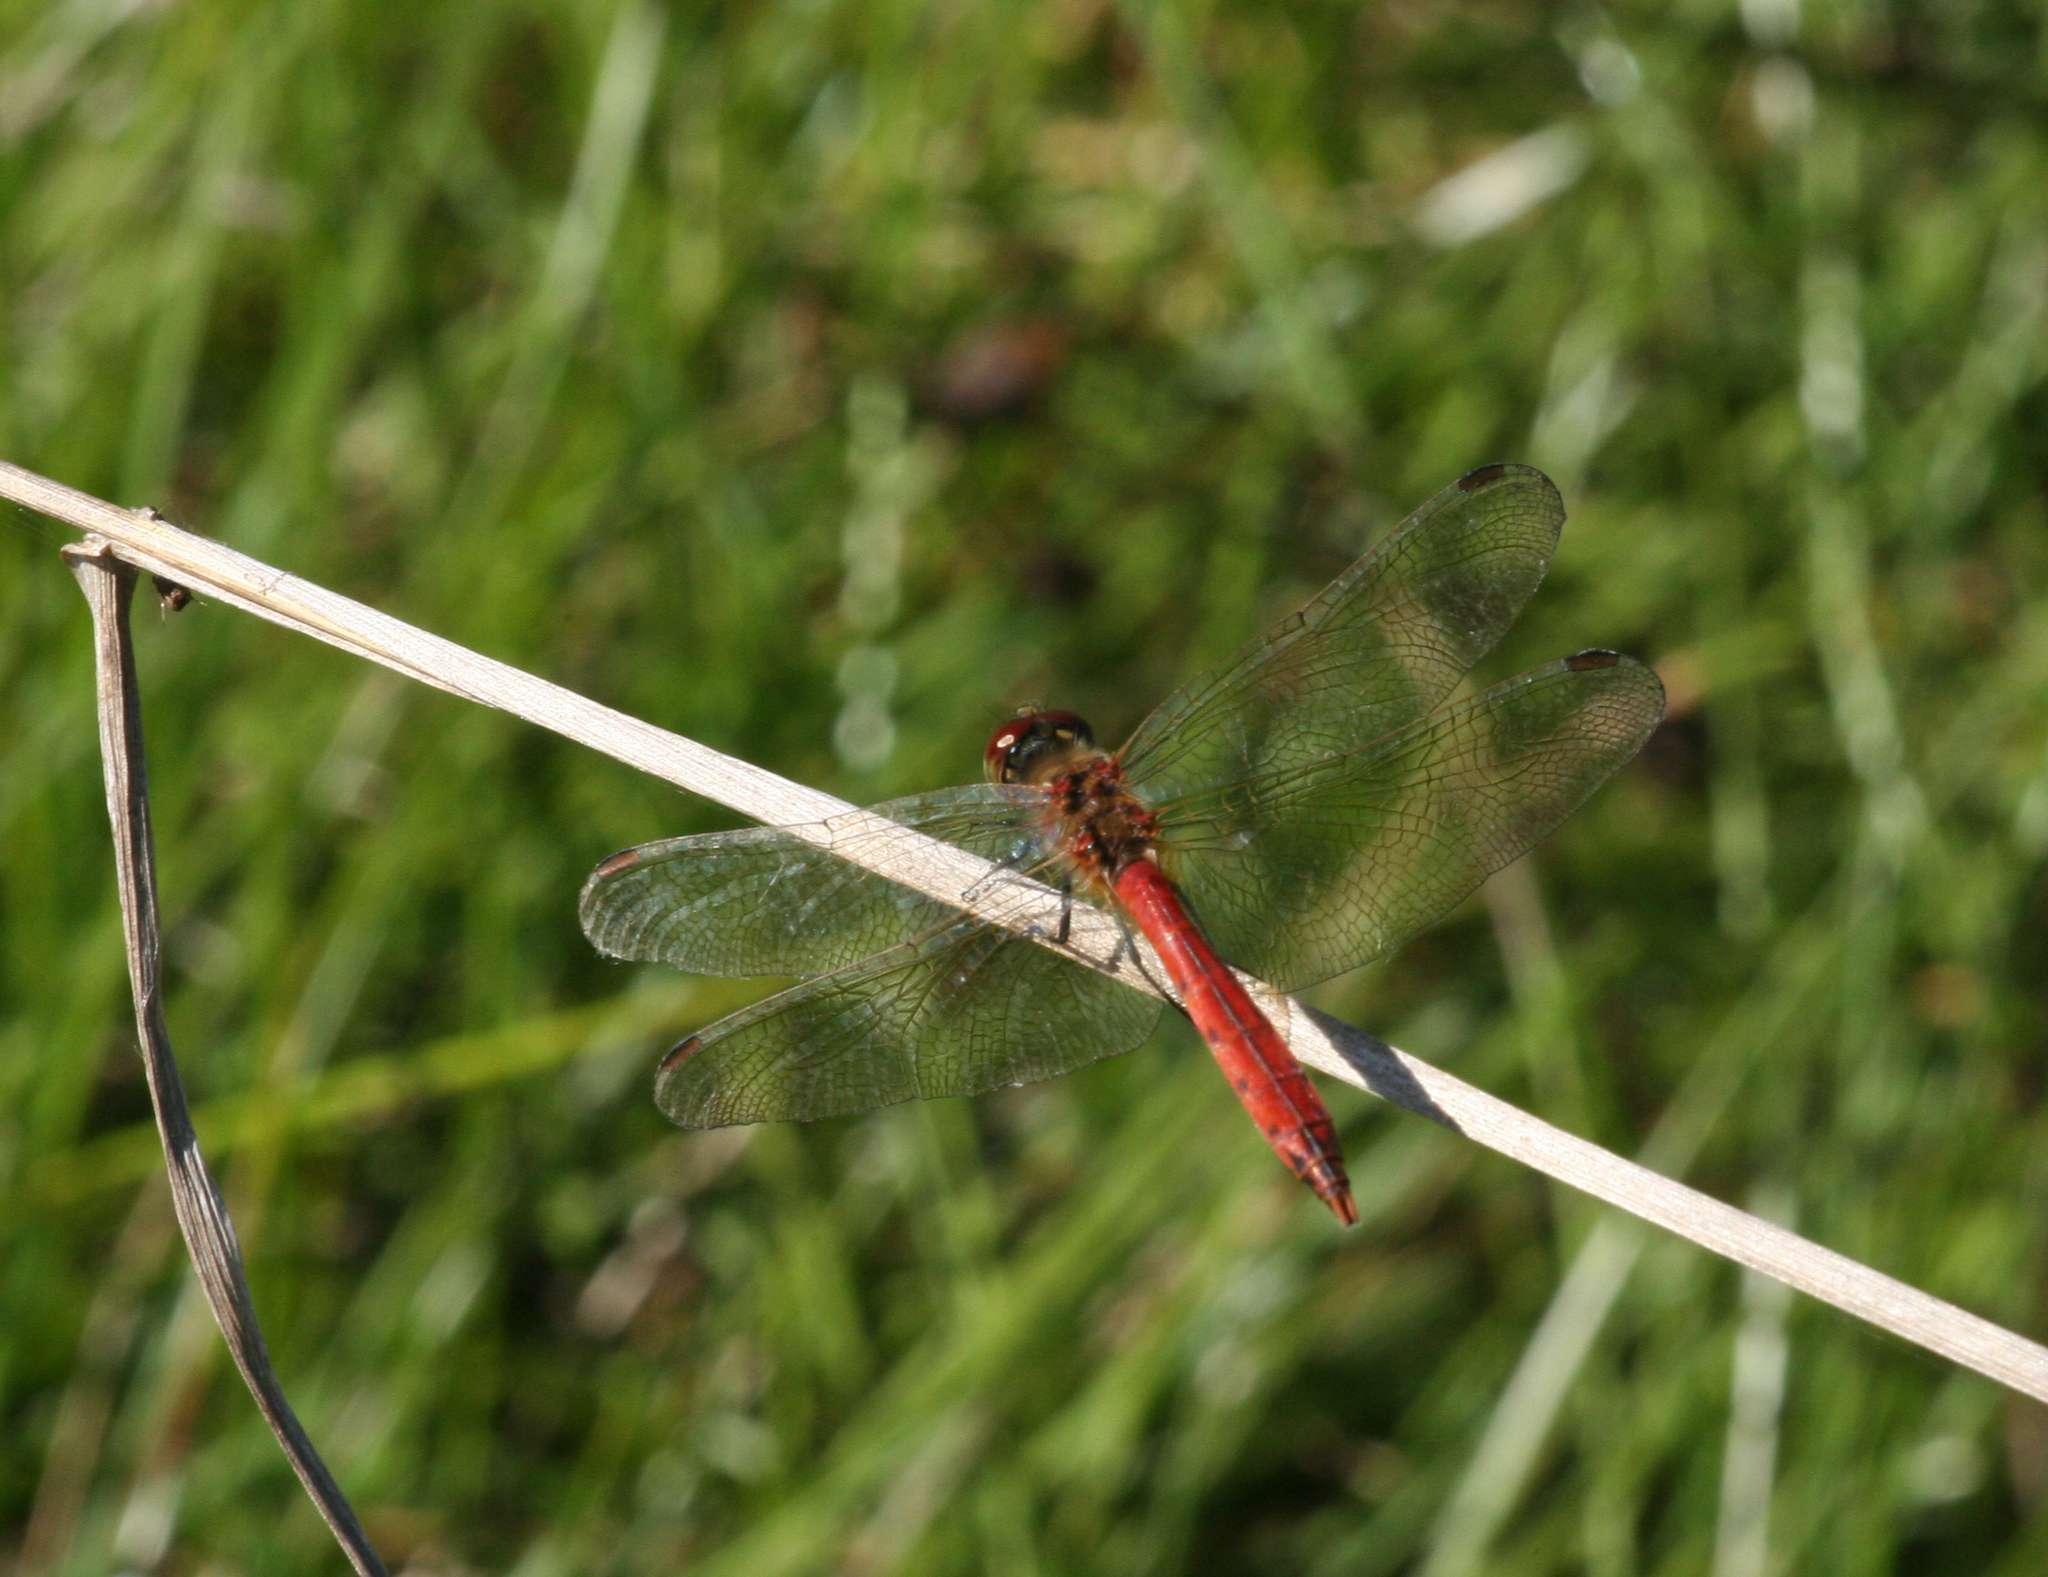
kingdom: Animalia
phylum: Arthropoda
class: Insecta
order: Odonata
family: Libellulidae
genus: Sympetrum
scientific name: Sympetrum depressiusculum
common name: Spotted darter
